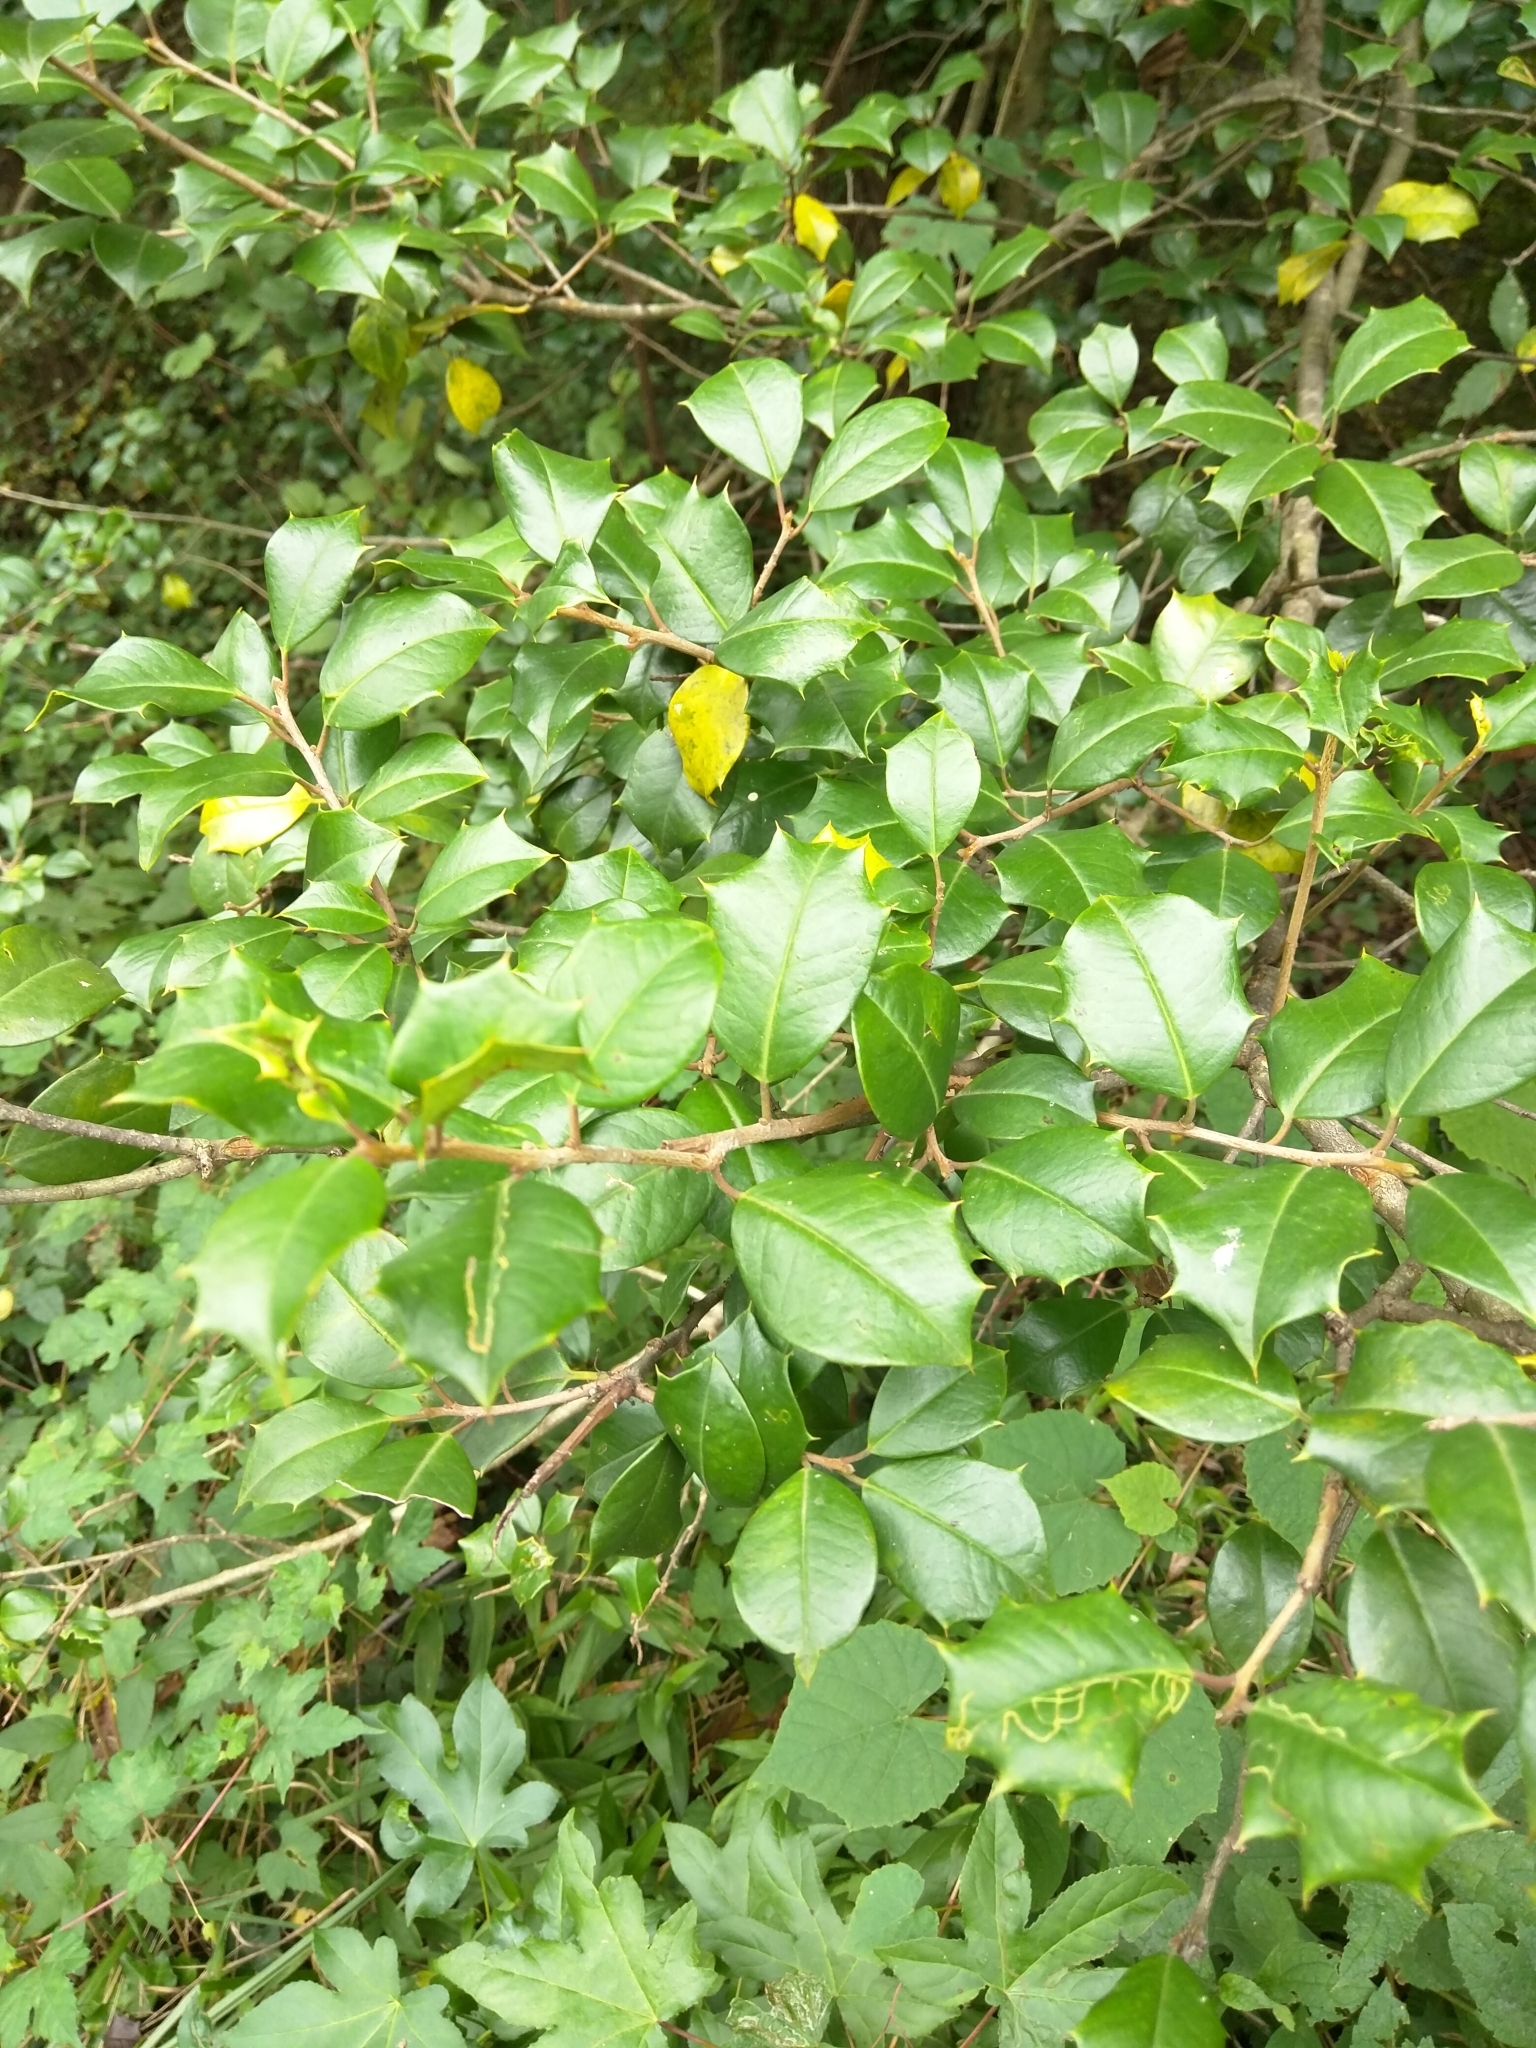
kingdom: Plantae
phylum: Tracheophyta
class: Magnoliopsida
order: Aquifoliales
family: Aquifoliaceae
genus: Ilex
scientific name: Ilex opaca
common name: American holly
